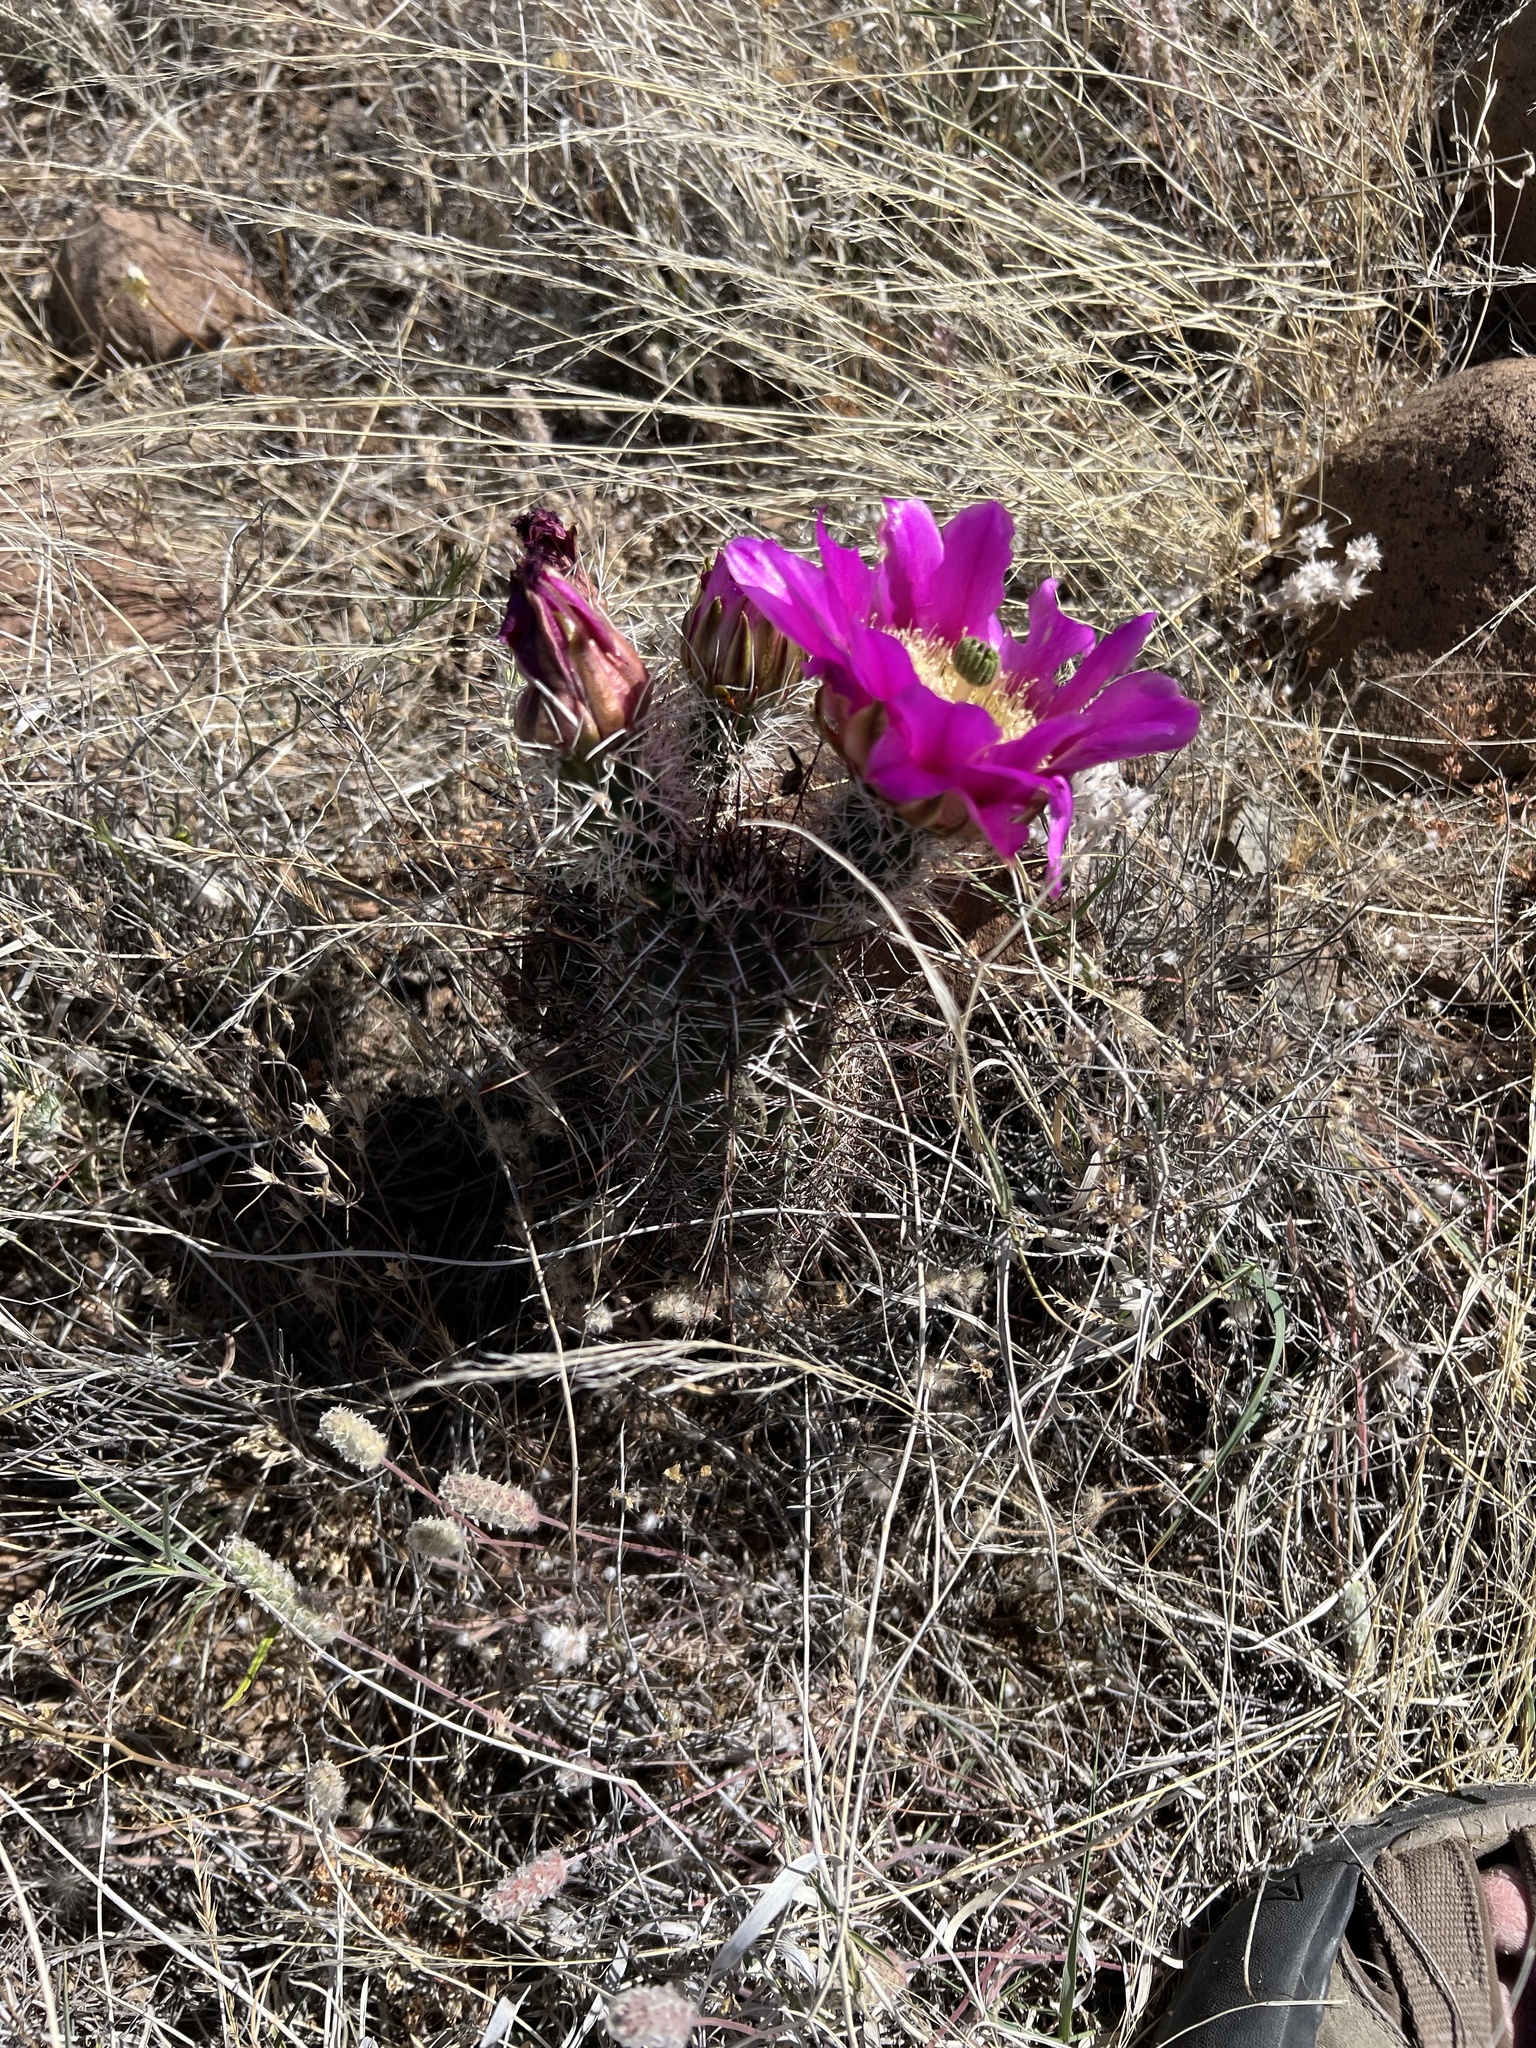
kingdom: Plantae
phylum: Tracheophyta
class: Magnoliopsida
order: Caryophyllales
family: Cactaceae
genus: Echinocereus
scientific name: Echinocereus fendleri
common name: Fendler's hedgehog cactus
